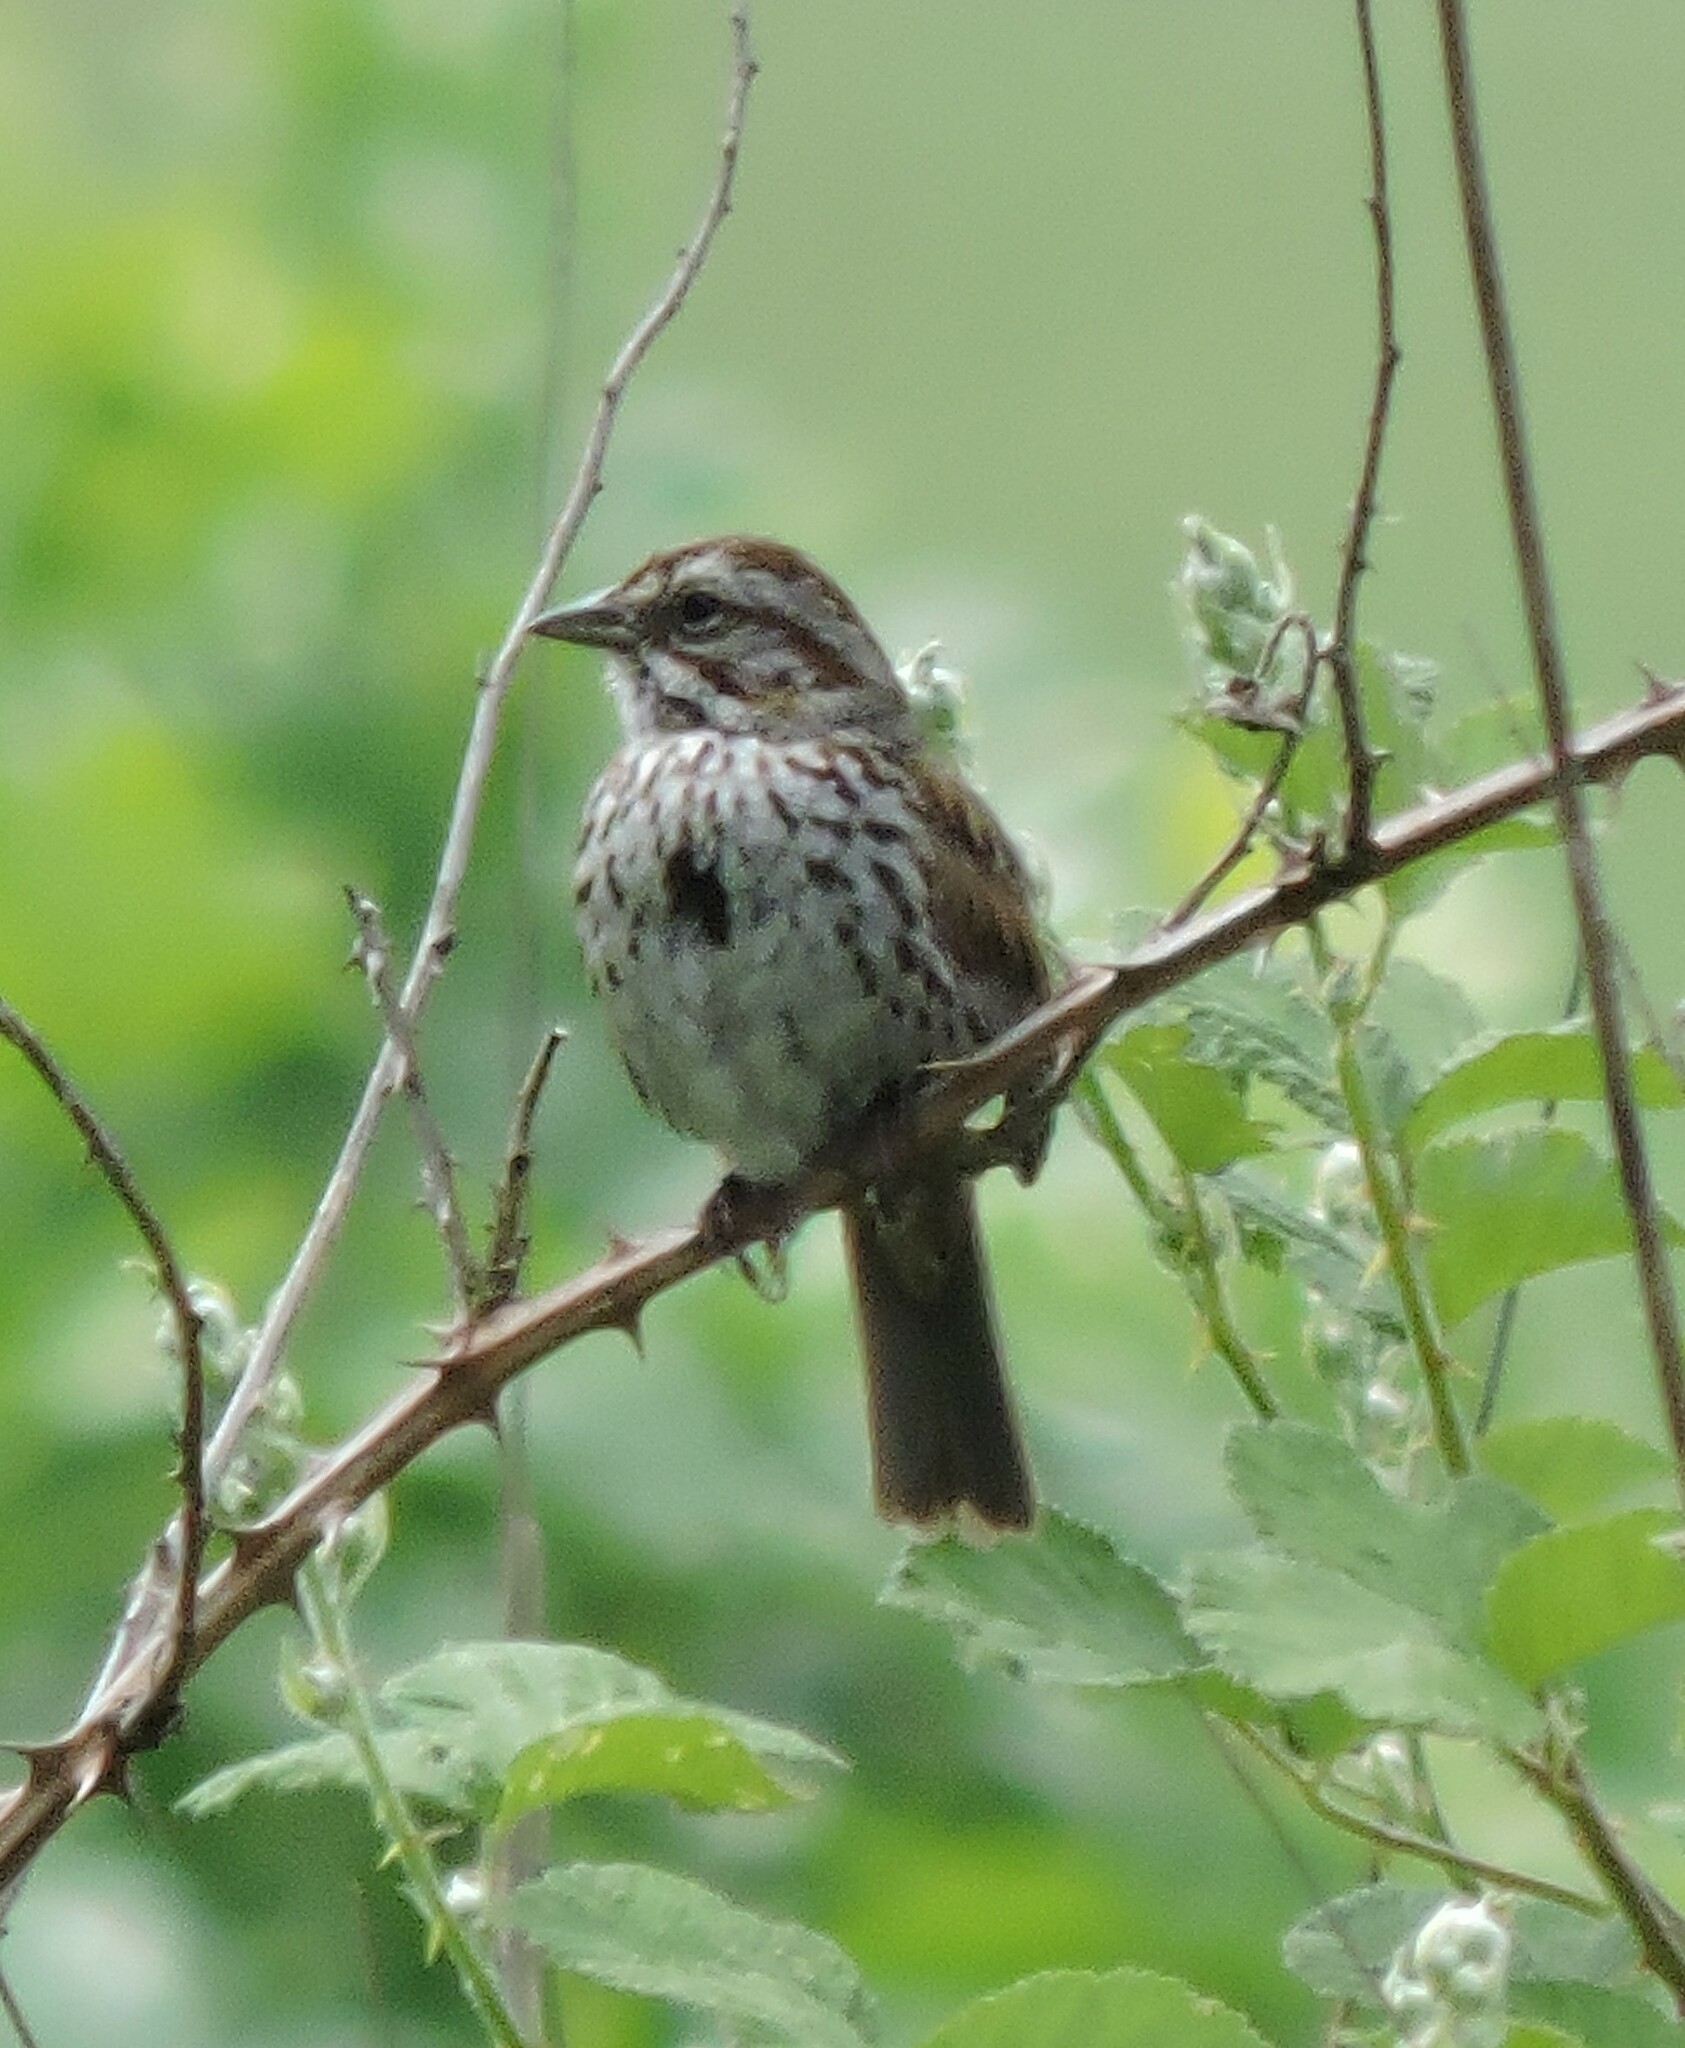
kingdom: Animalia
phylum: Chordata
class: Aves
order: Passeriformes
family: Passerellidae
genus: Melospiza
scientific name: Melospiza melodia
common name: Song sparrow
